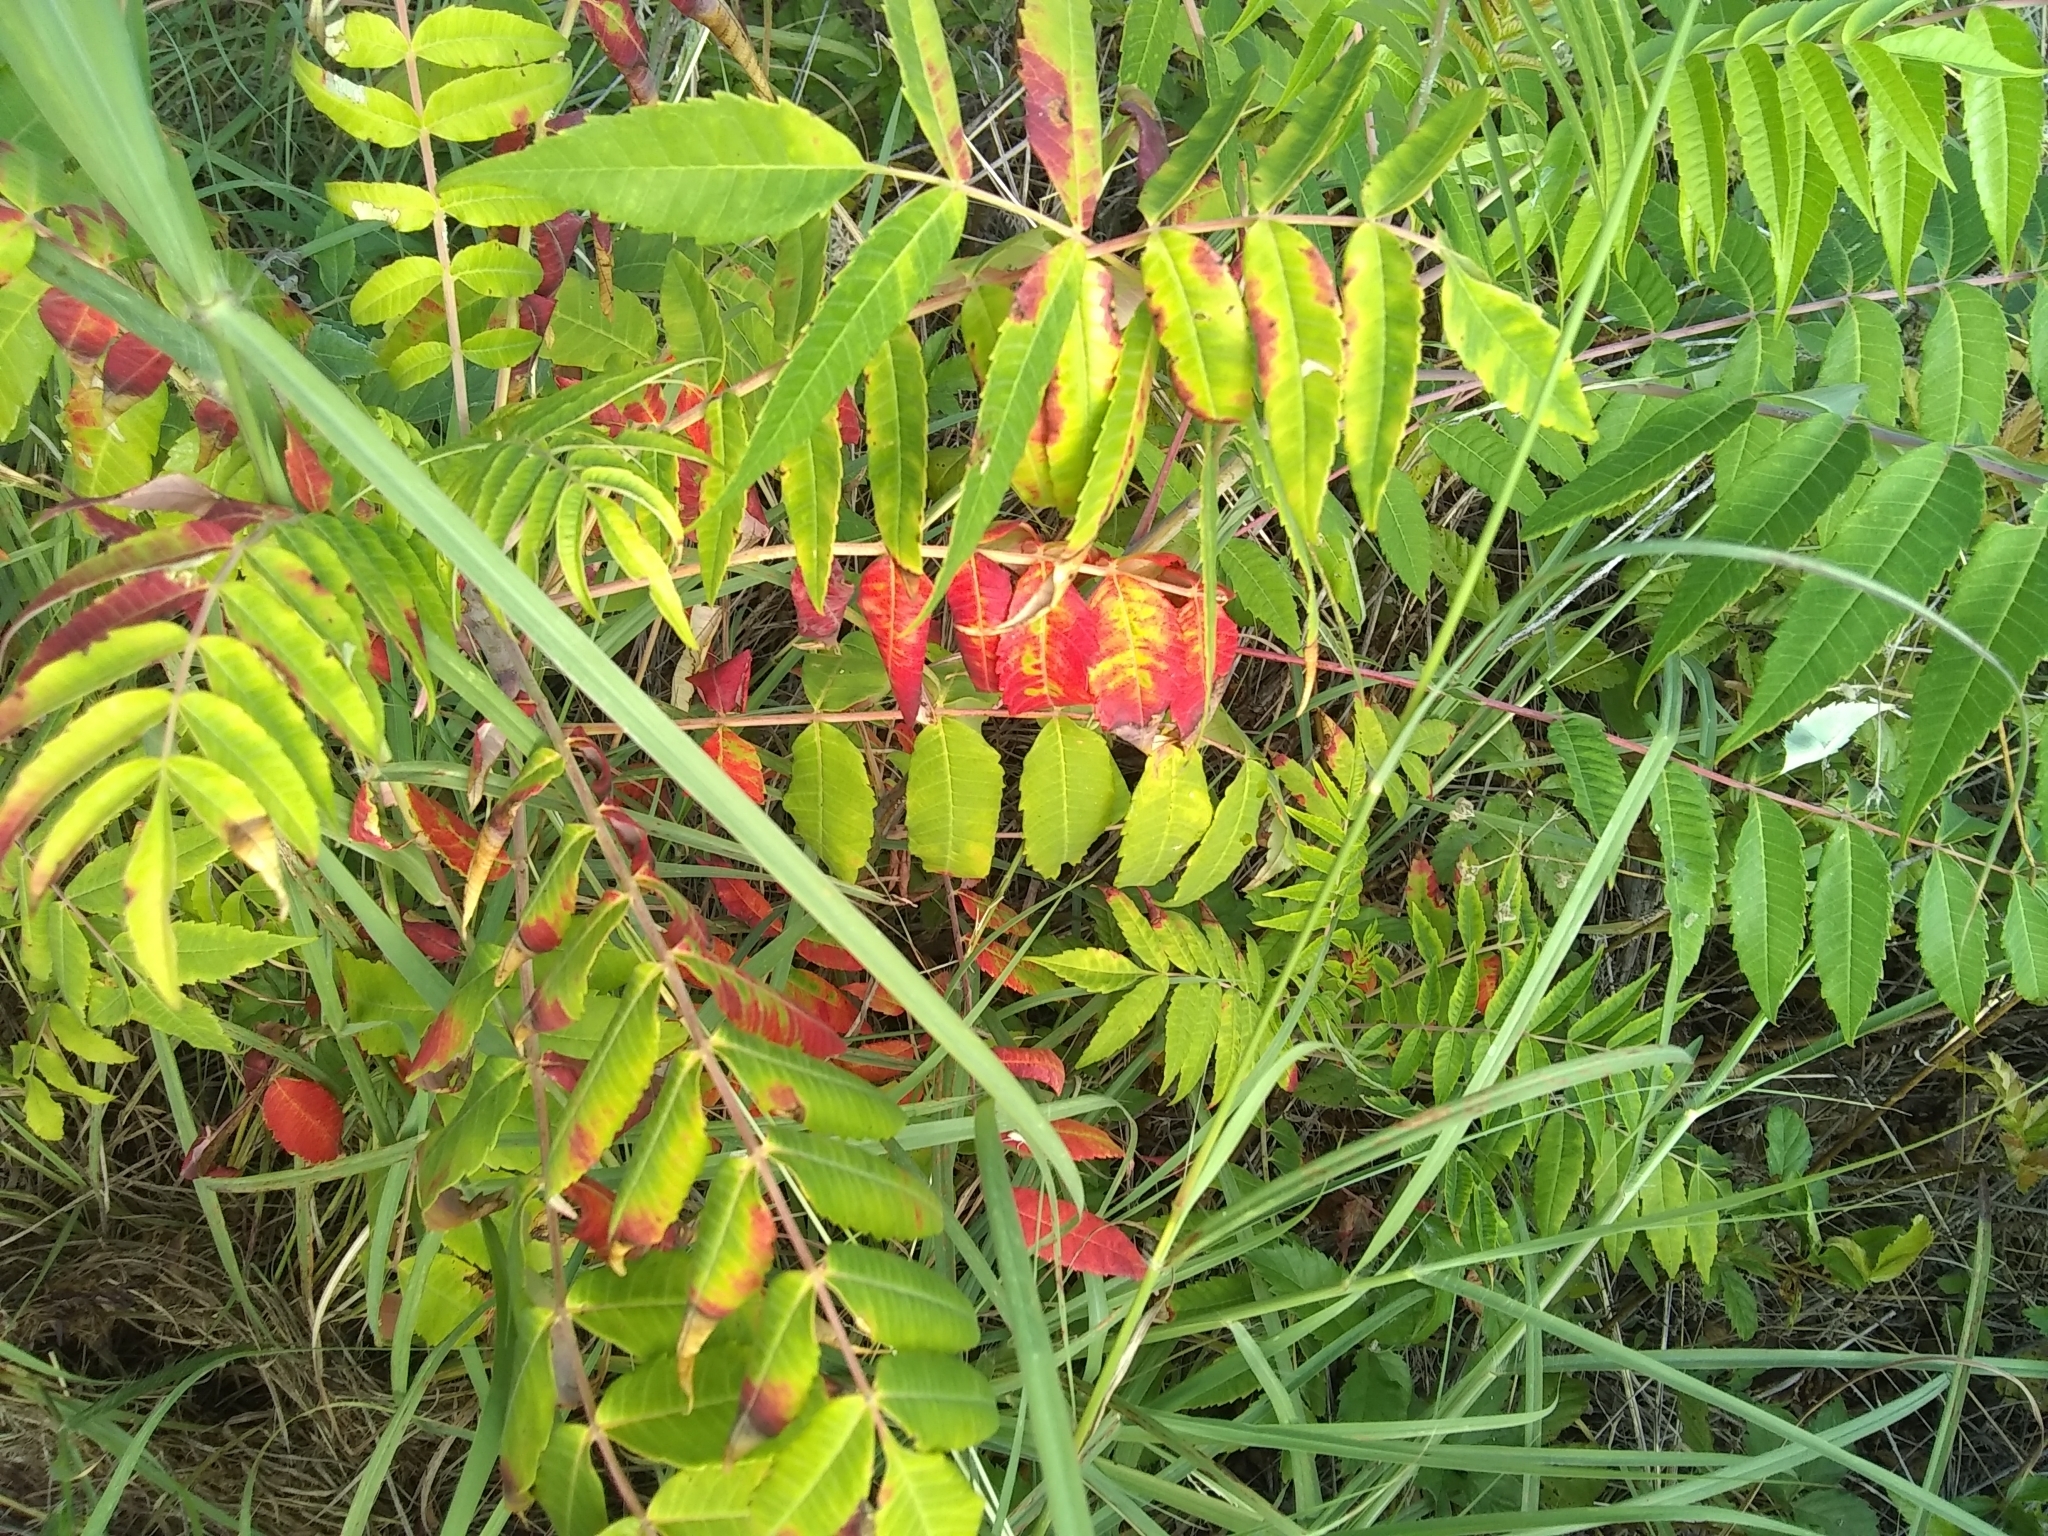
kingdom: Plantae
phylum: Tracheophyta
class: Magnoliopsida
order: Sapindales
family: Anacardiaceae
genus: Rhus
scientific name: Rhus glabra
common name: Scarlet sumac
